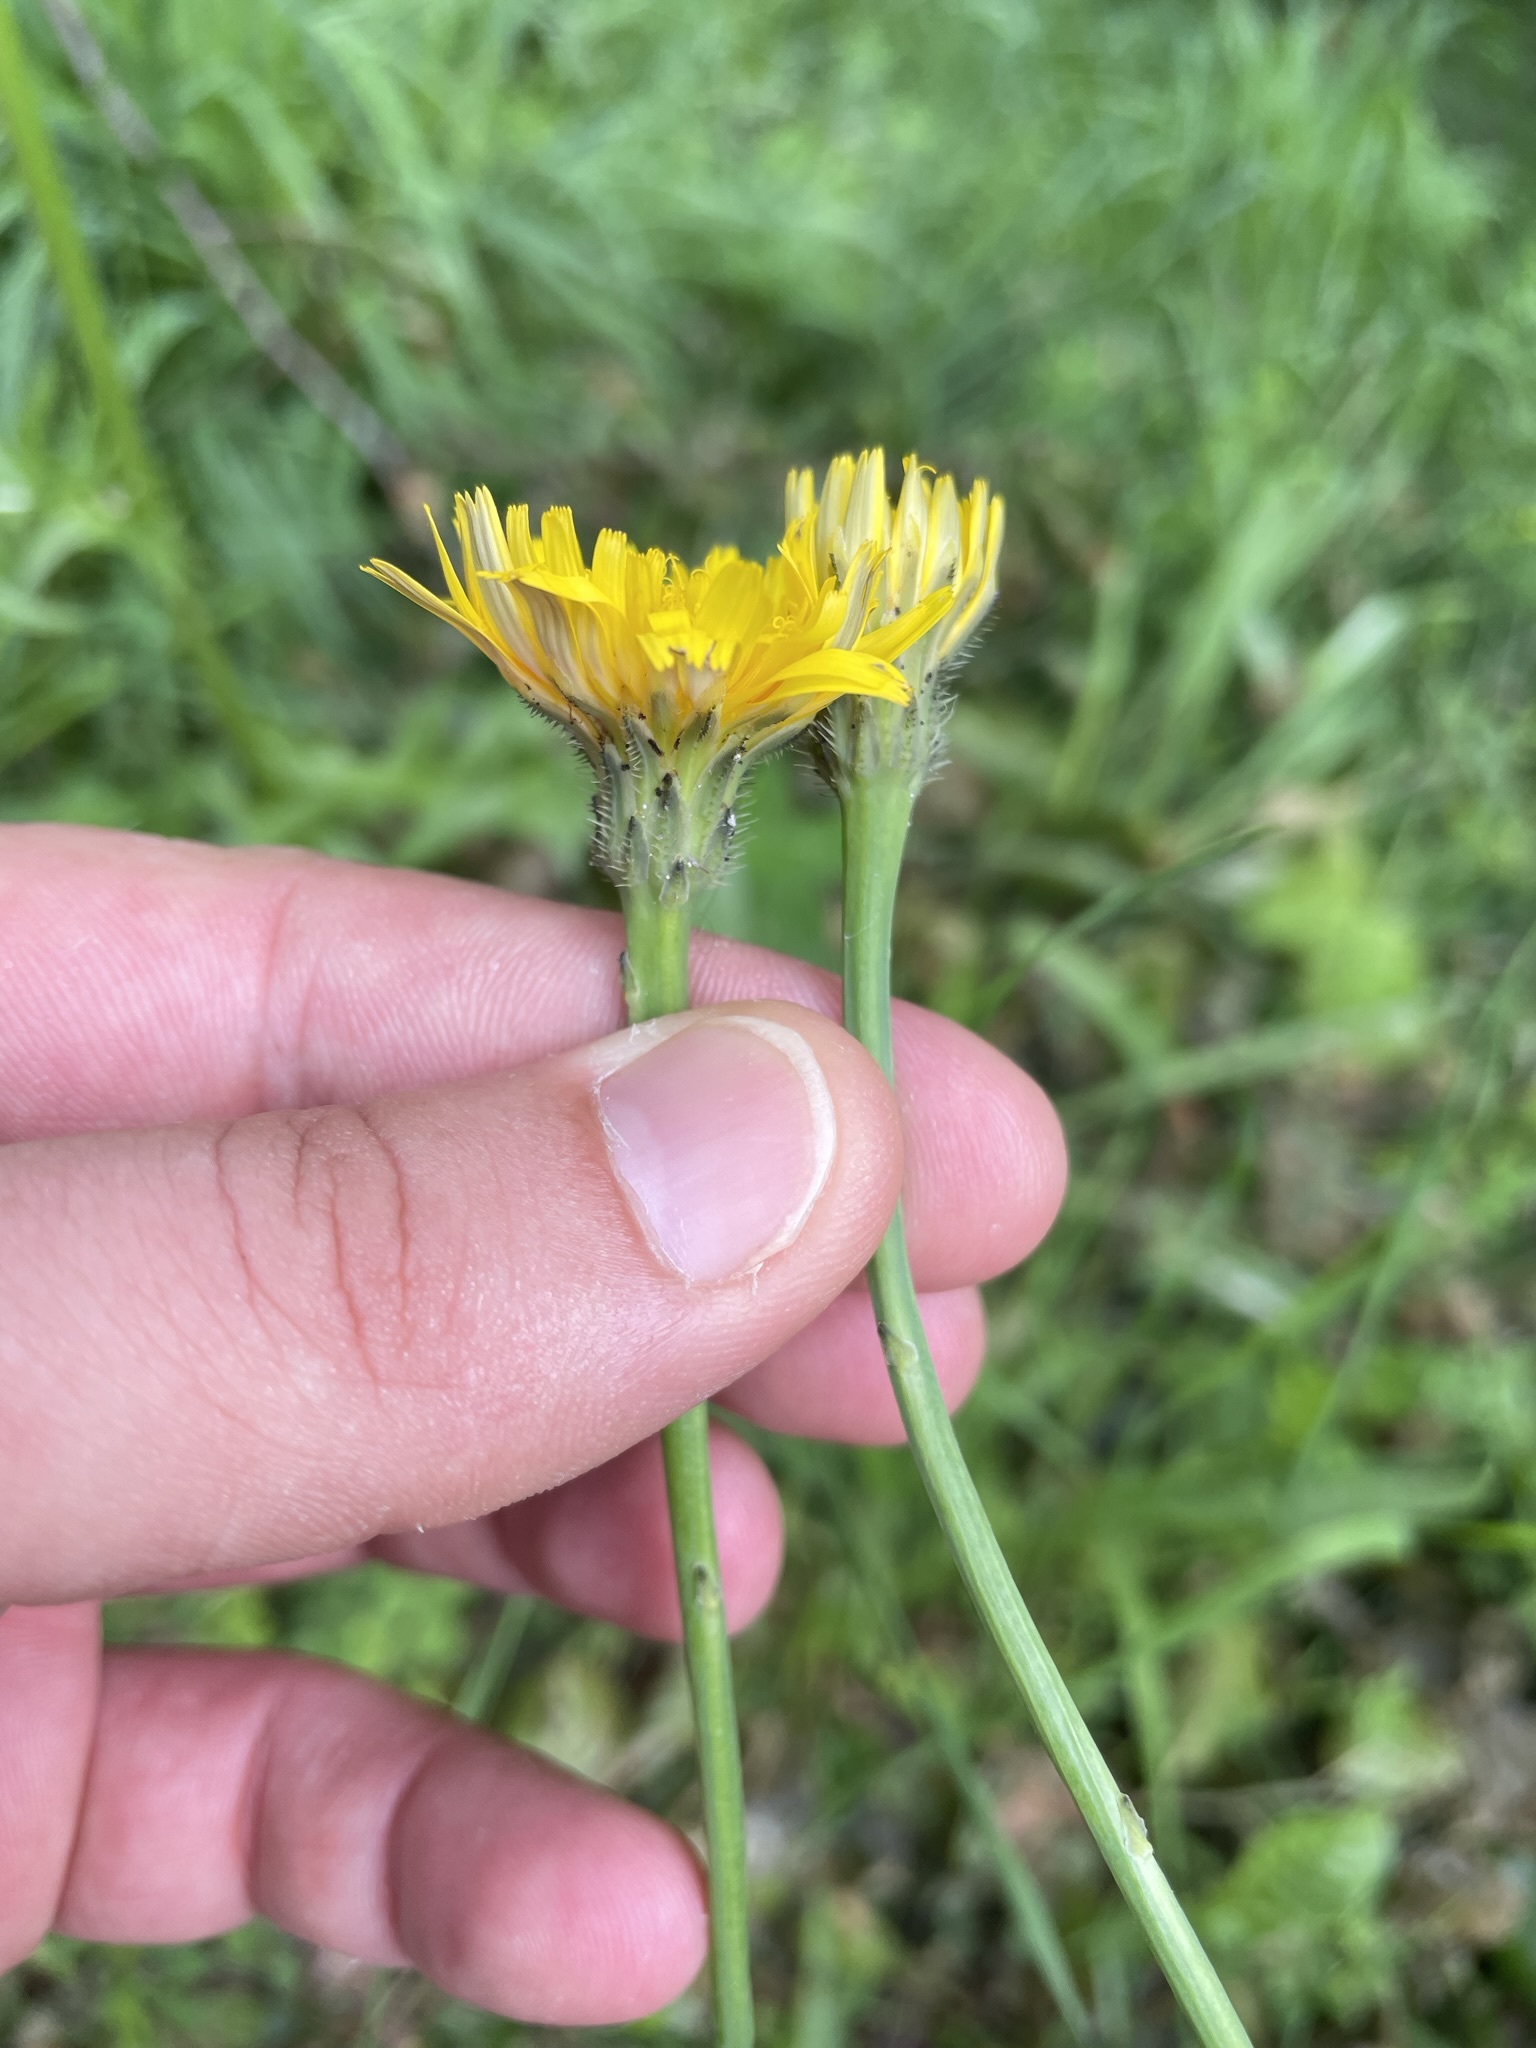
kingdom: Plantae
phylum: Tracheophyta
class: Magnoliopsida
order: Asterales
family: Asteraceae
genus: Hypochaeris
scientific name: Hypochaeris radicata
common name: Flatweed
